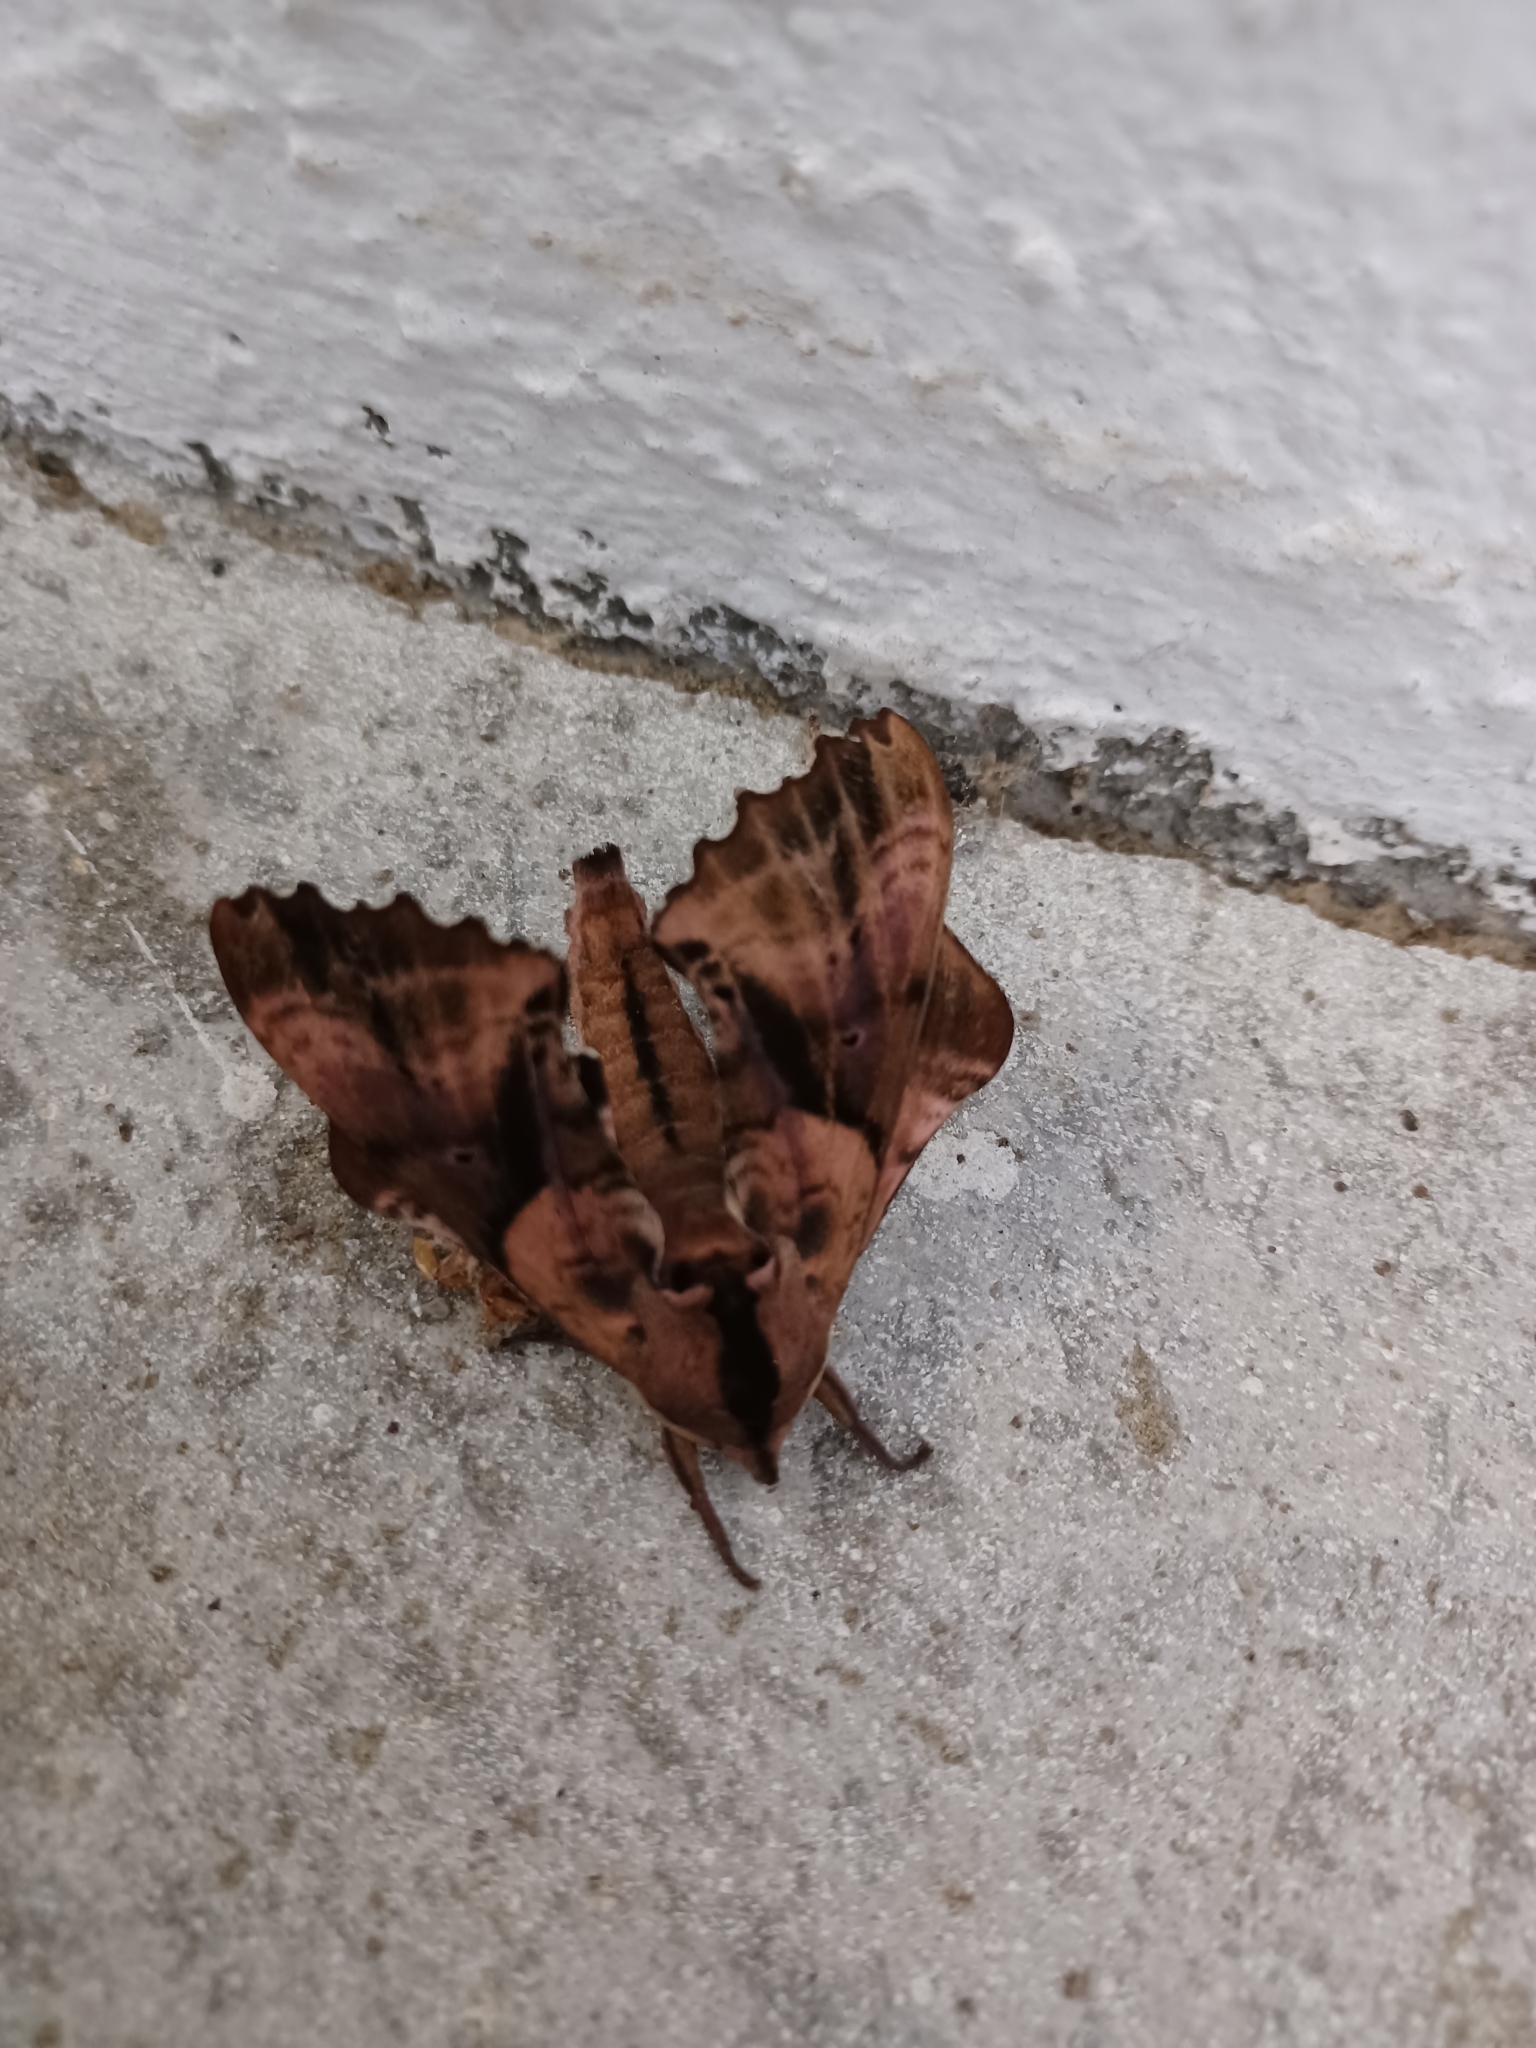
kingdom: Animalia
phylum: Arthropoda
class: Insecta
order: Lepidoptera
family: Sphingidae
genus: Paonias
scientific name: Paonias excaecata
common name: Blind-eyed sphinx
